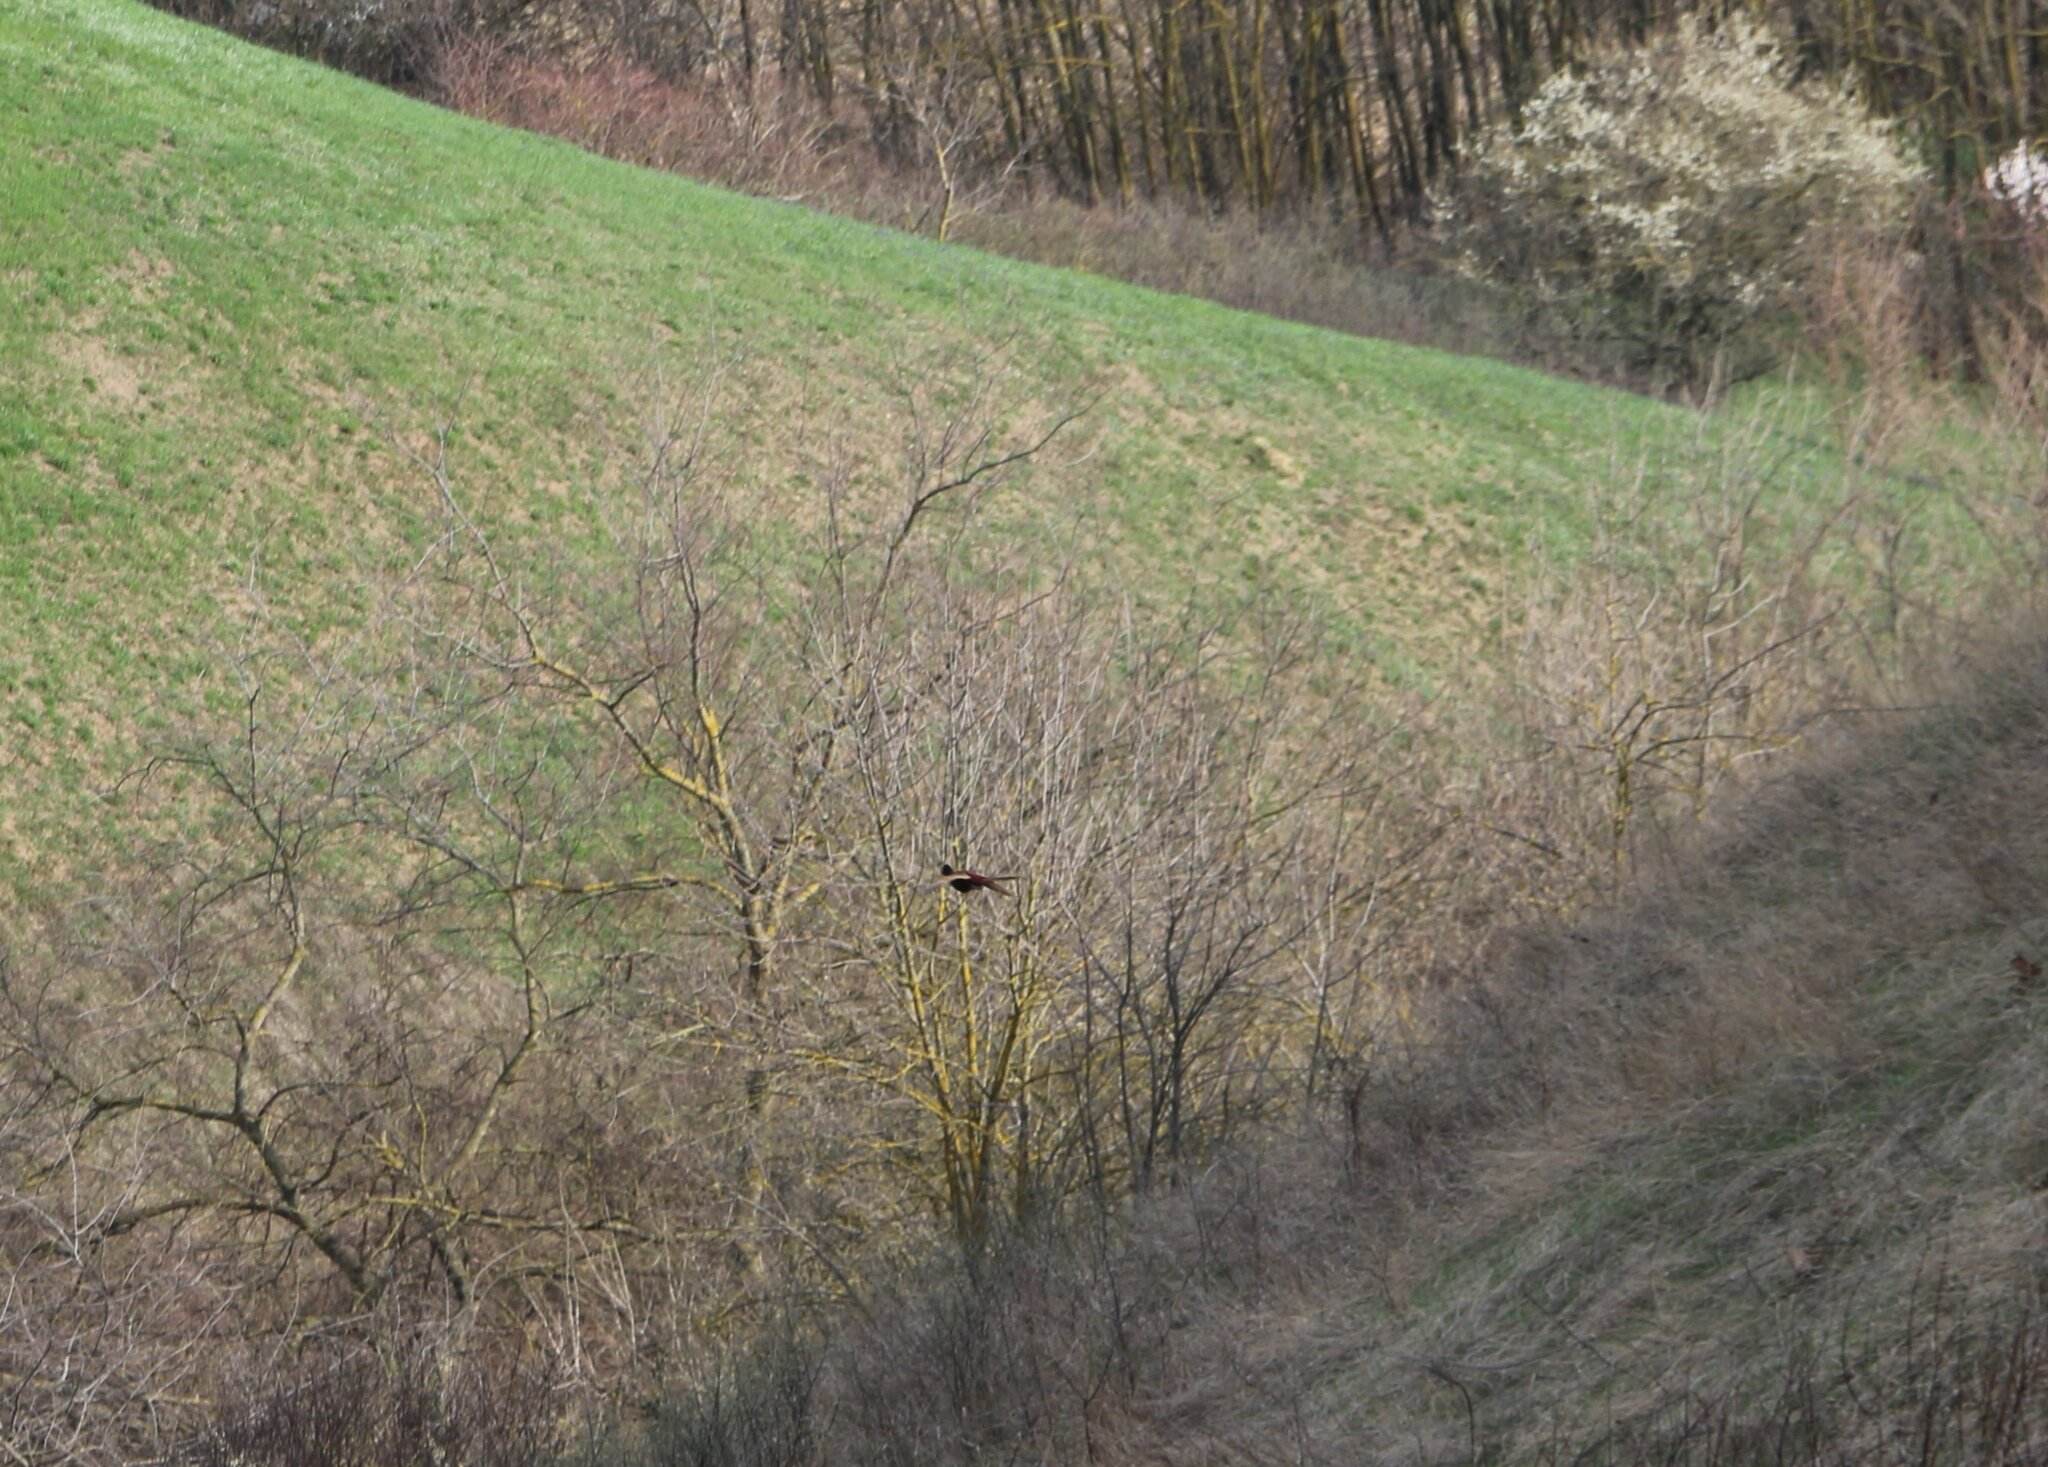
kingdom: Animalia
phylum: Chordata
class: Aves
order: Galliformes
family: Phasianidae
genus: Phasianus
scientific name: Phasianus colchicus
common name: Common pheasant
